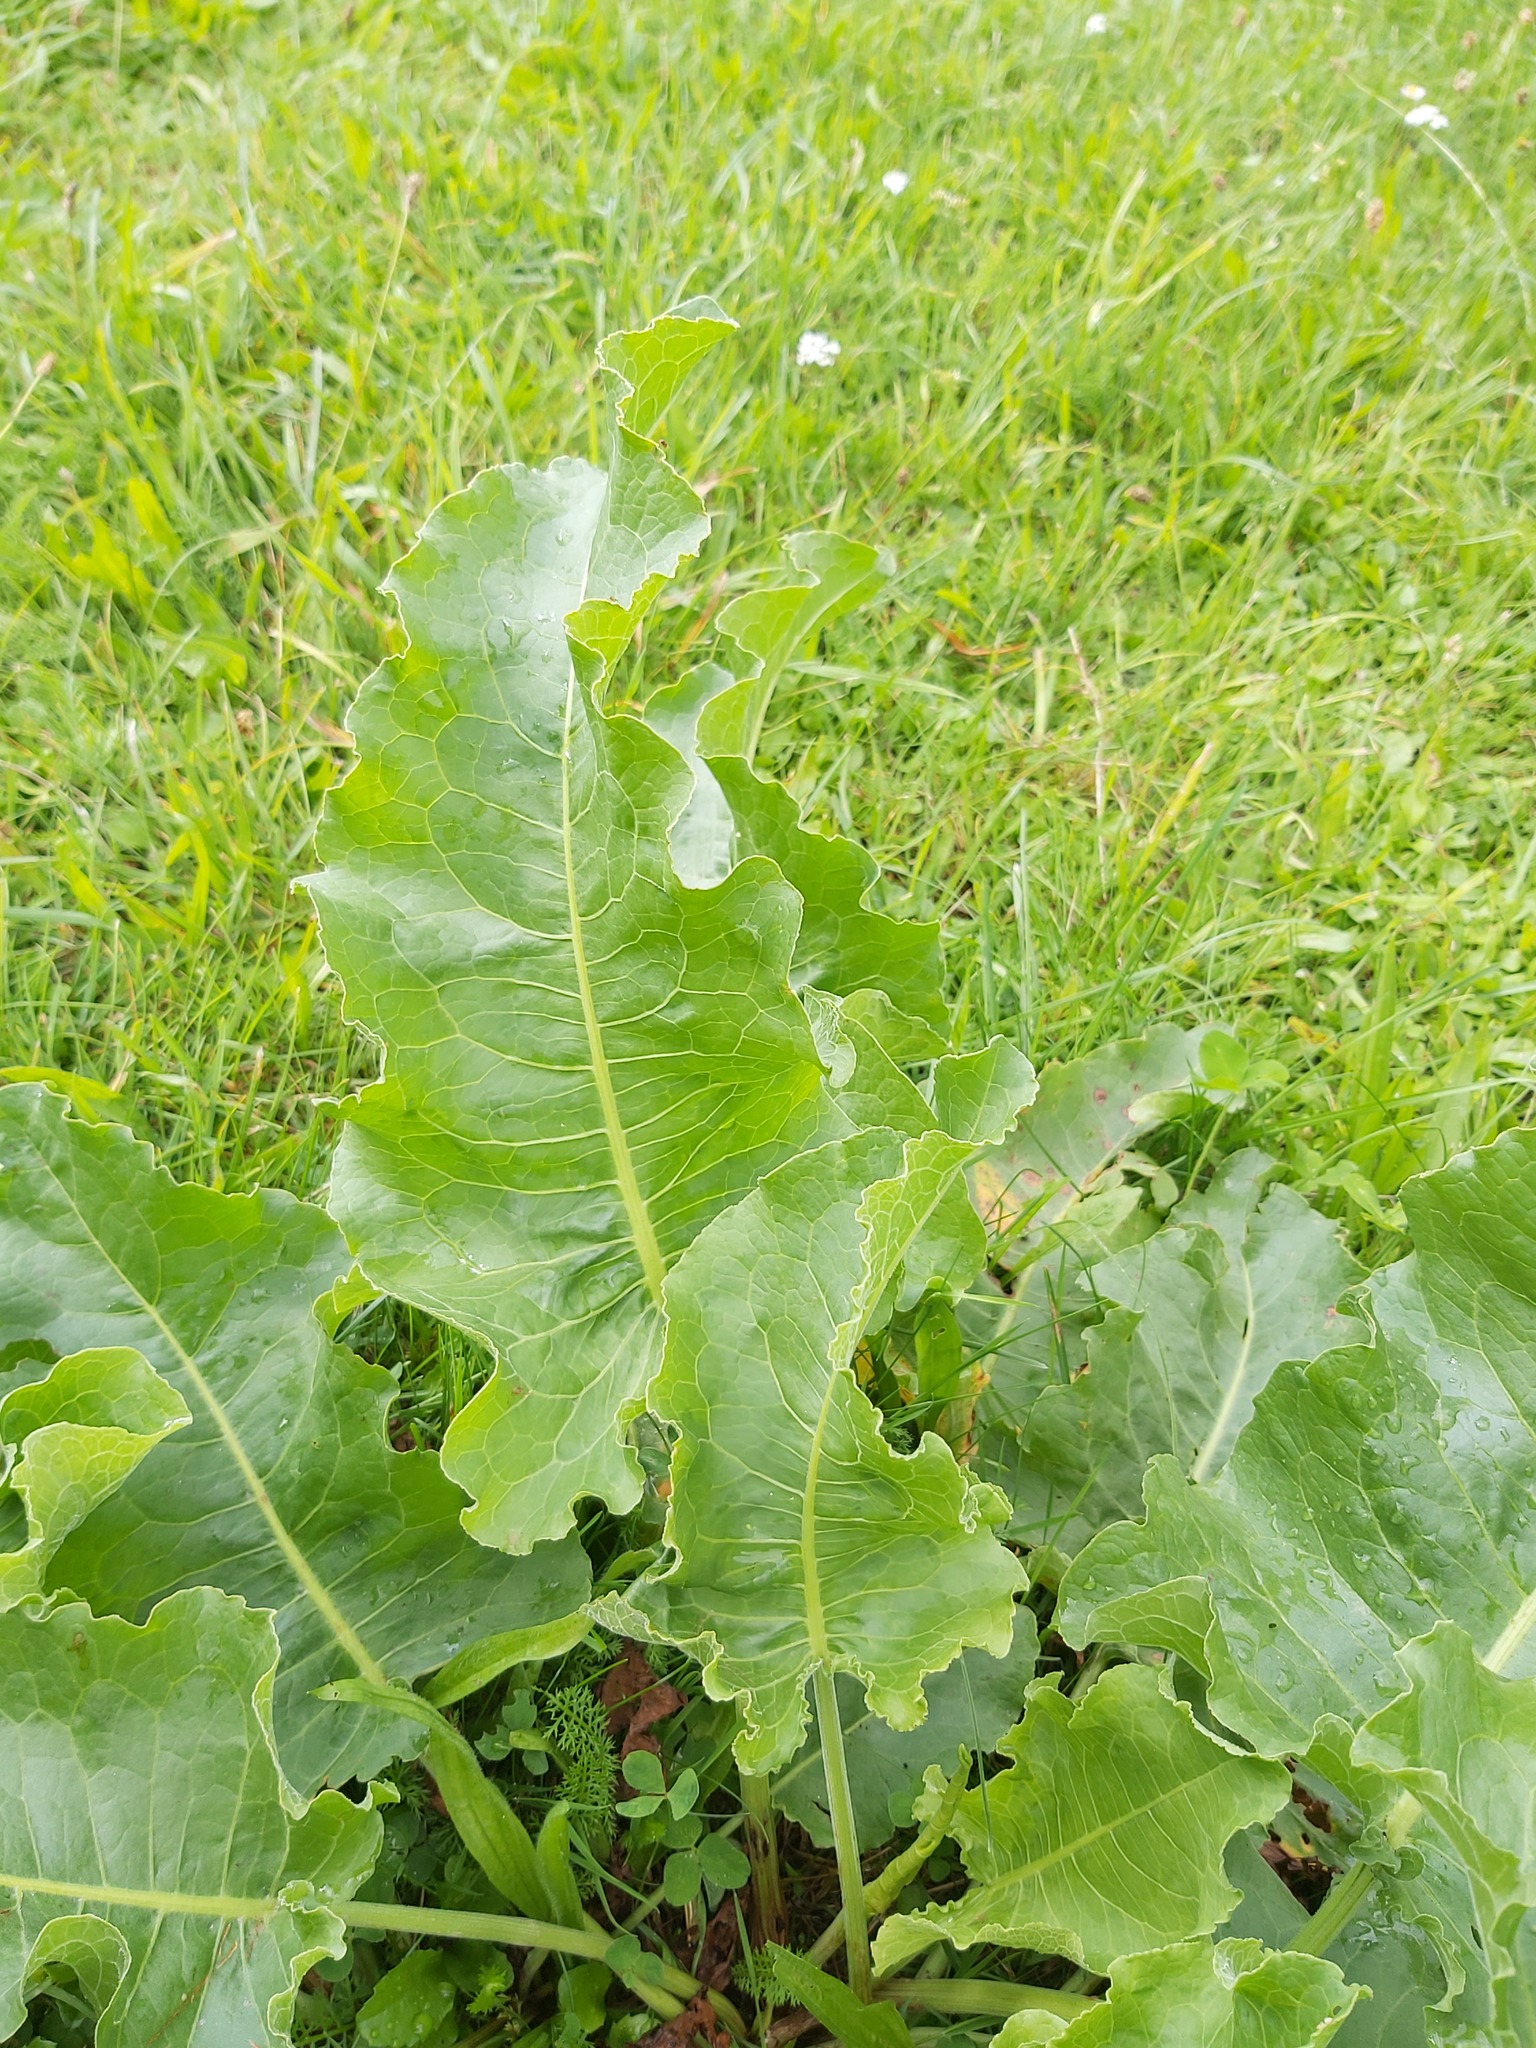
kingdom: Plantae
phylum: Tracheophyta
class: Magnoliopsida
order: Caryophyllales
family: Polygonaceae
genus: Rumex
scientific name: Rumex confertus
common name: Russian dock
